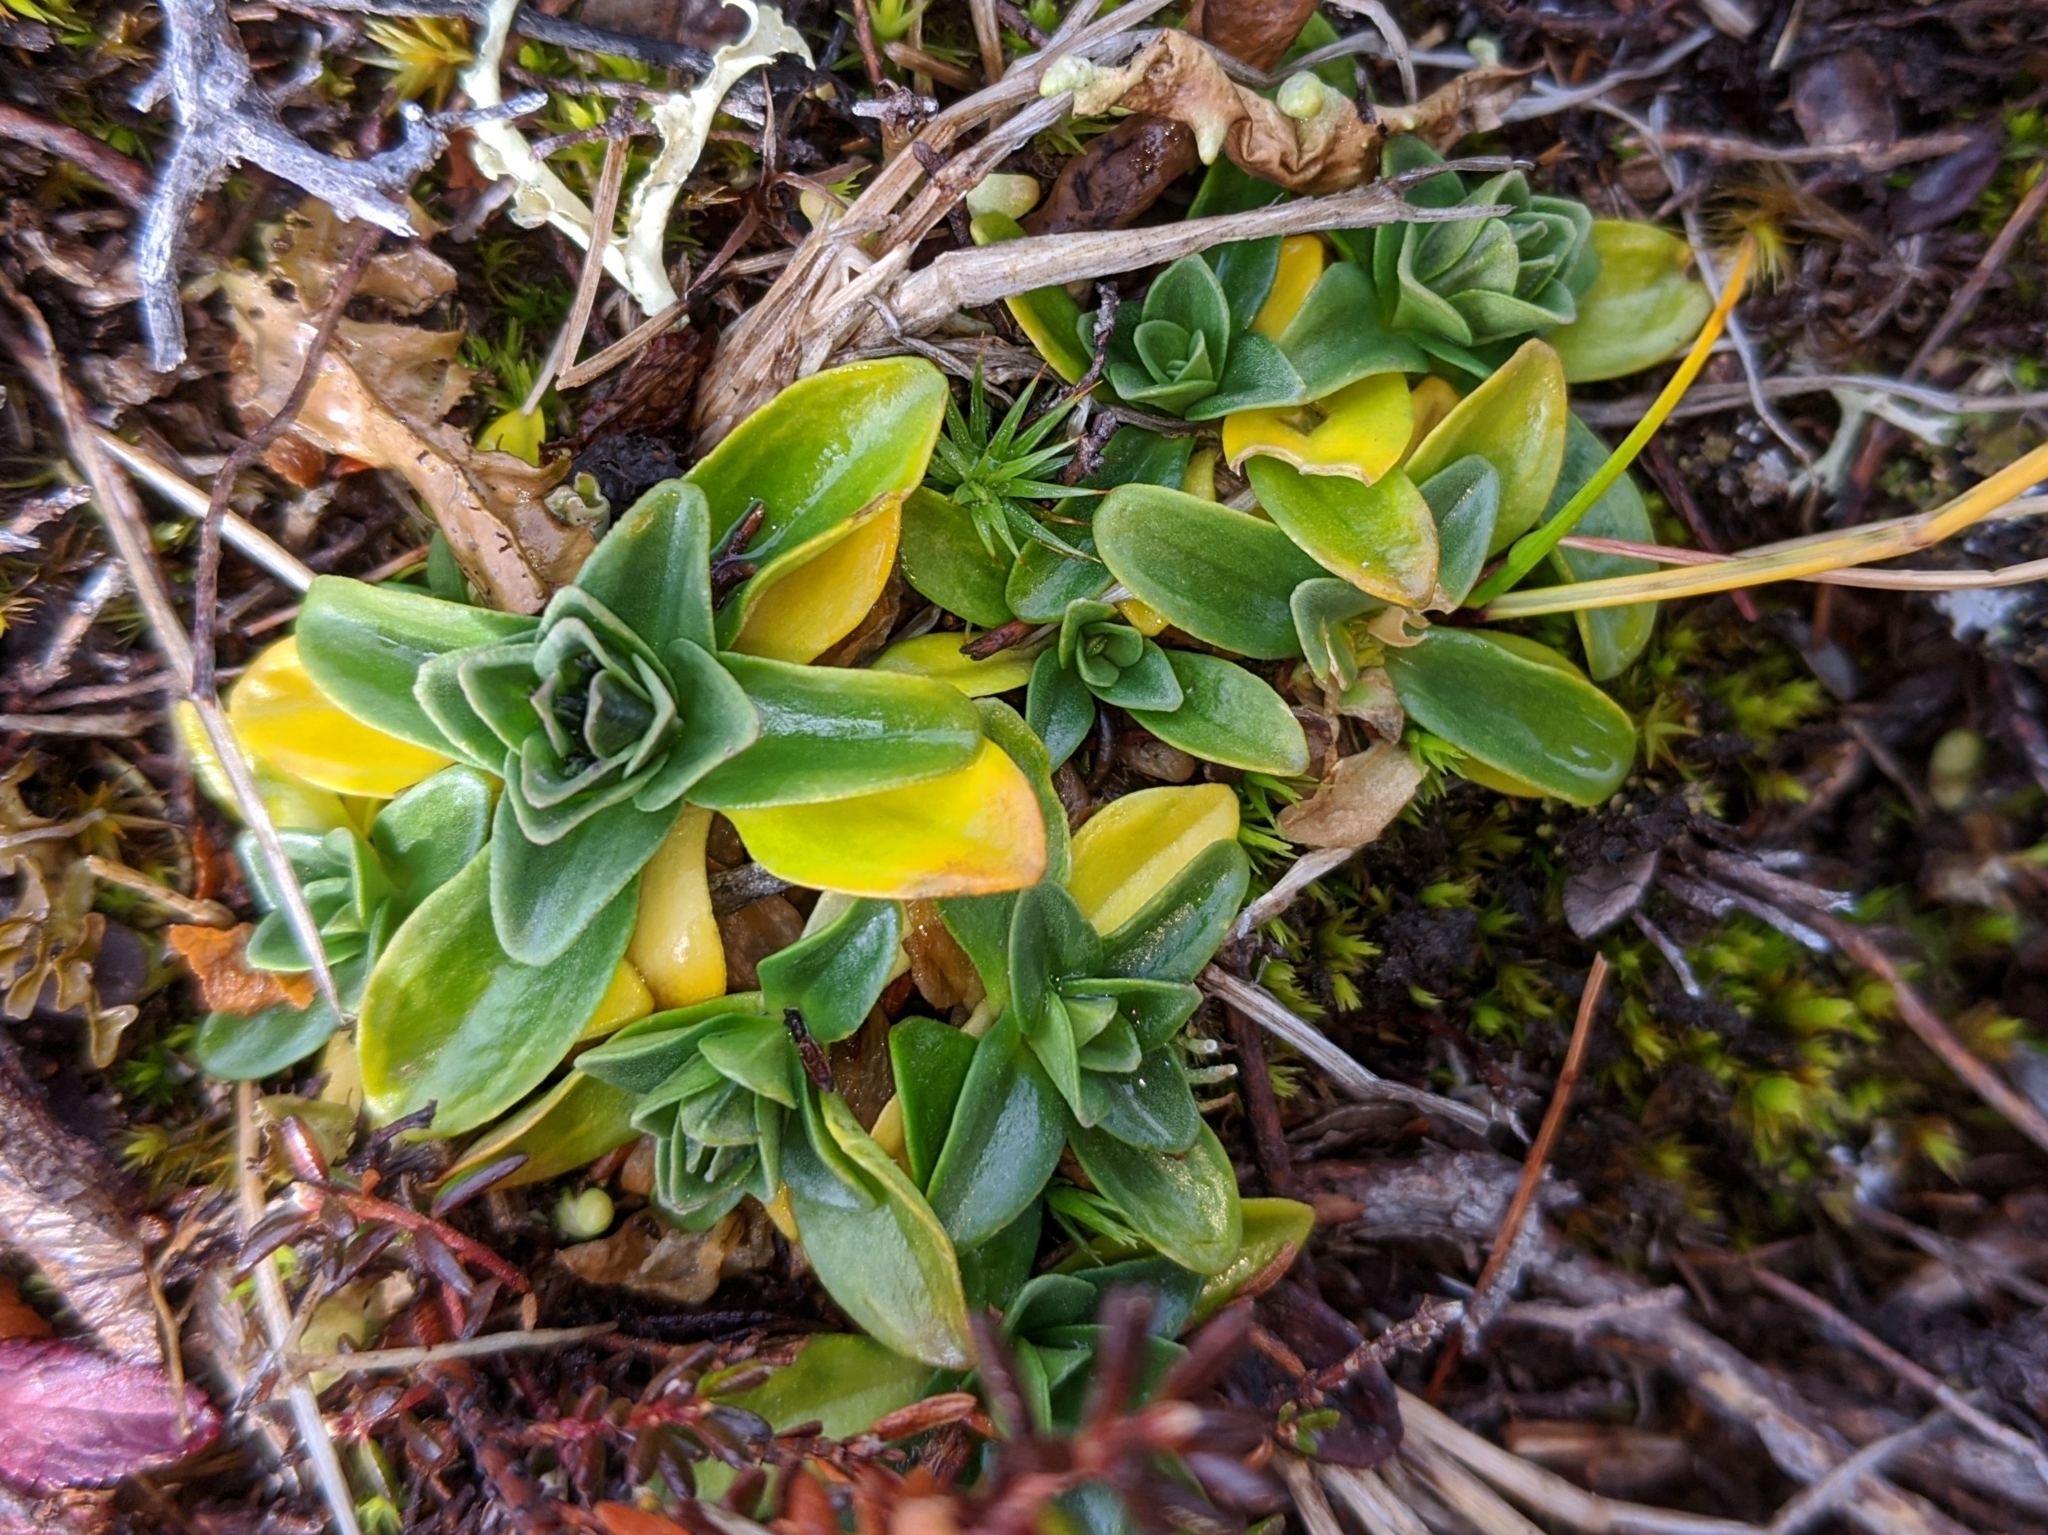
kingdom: Plantae
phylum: Tracheophyta
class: Magnoliopsida
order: Gentianales
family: Gentianaceae
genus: Gentiana
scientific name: Gentiana glauca
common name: Alpine gentian
